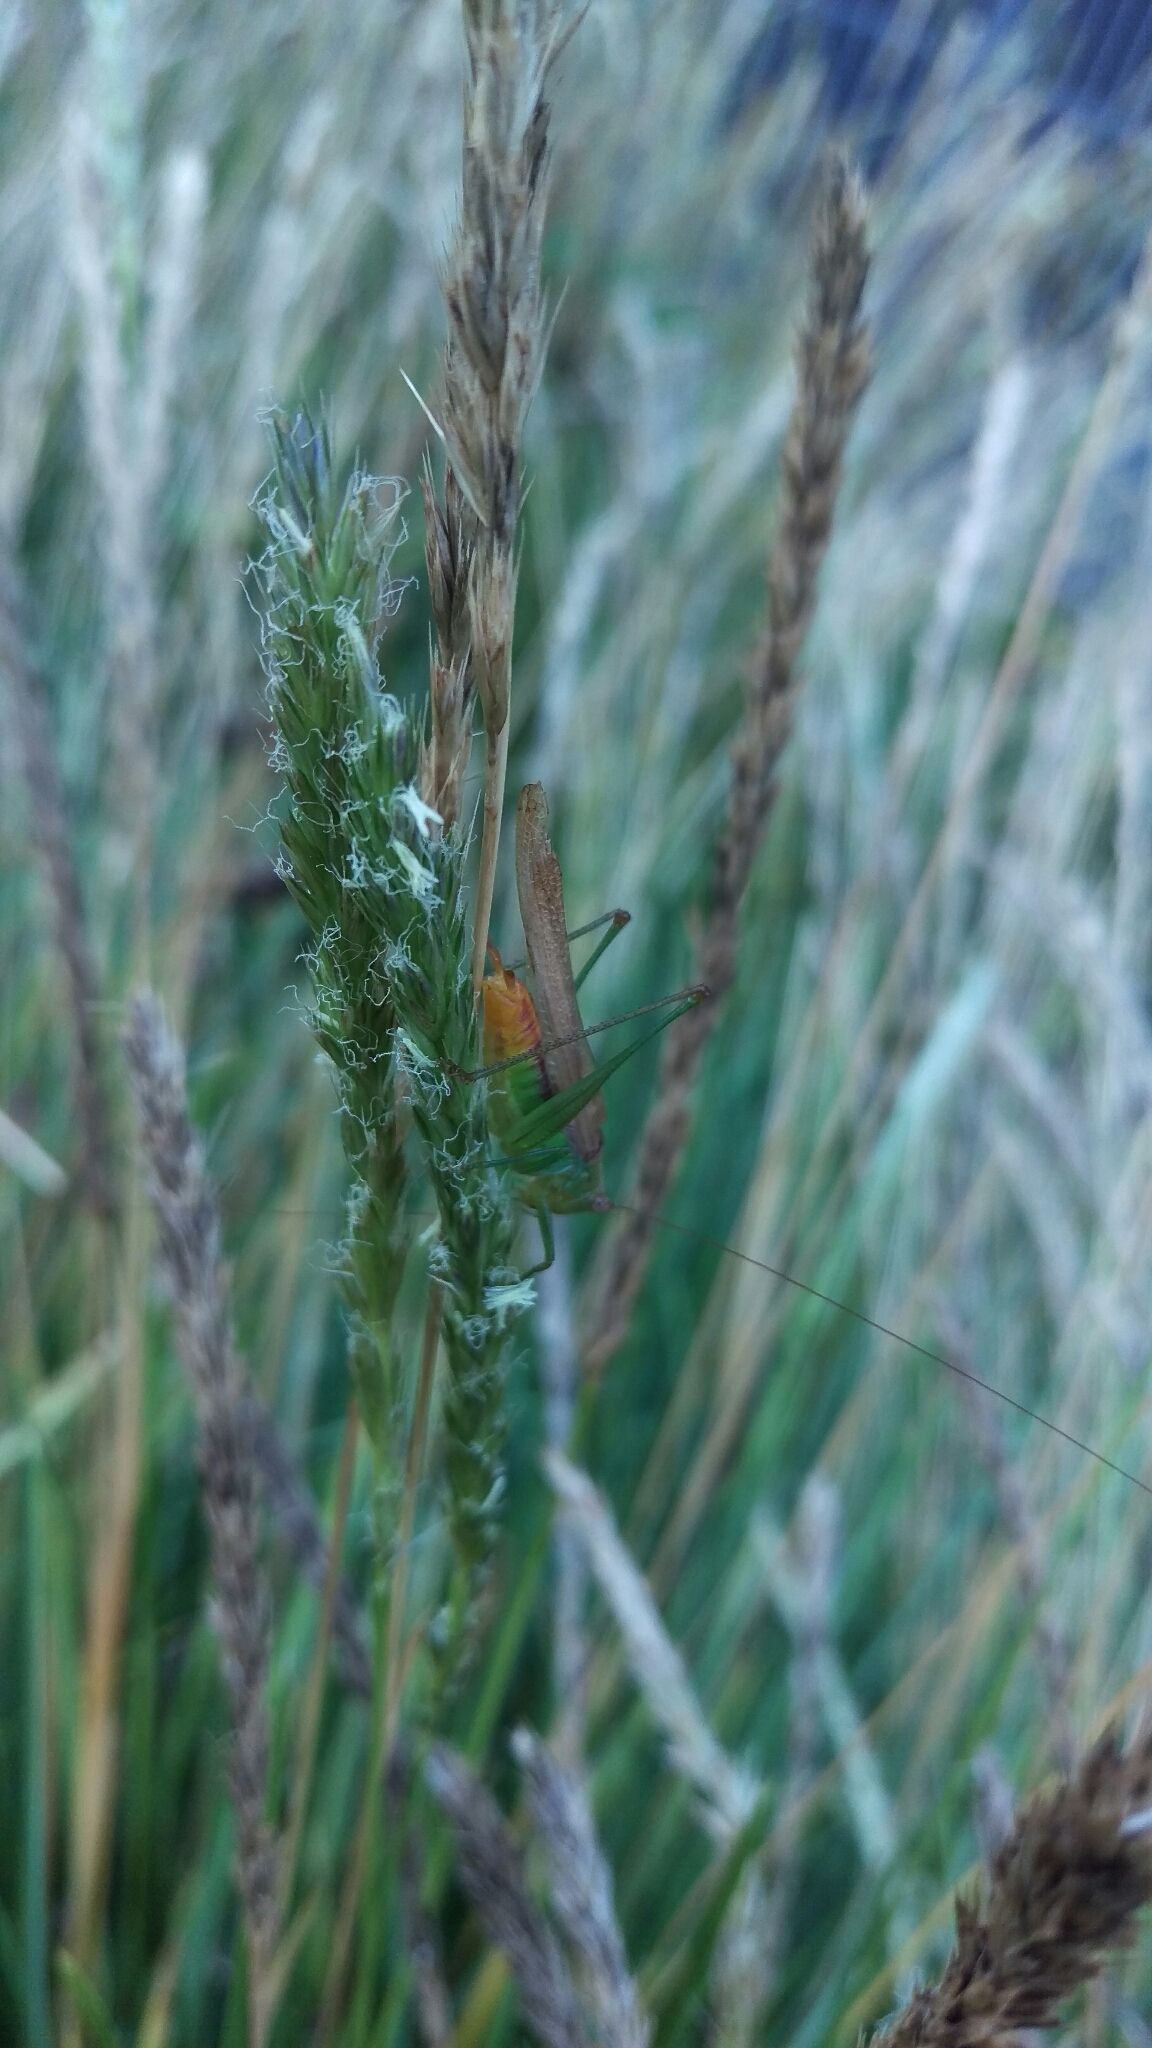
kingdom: Animalia
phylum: Arthropoda
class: Insecta
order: Orthoptera
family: Tettigoniidae
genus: Conocephalus
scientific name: Conocephalus brevipennis
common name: Short-winged meadow katydid
